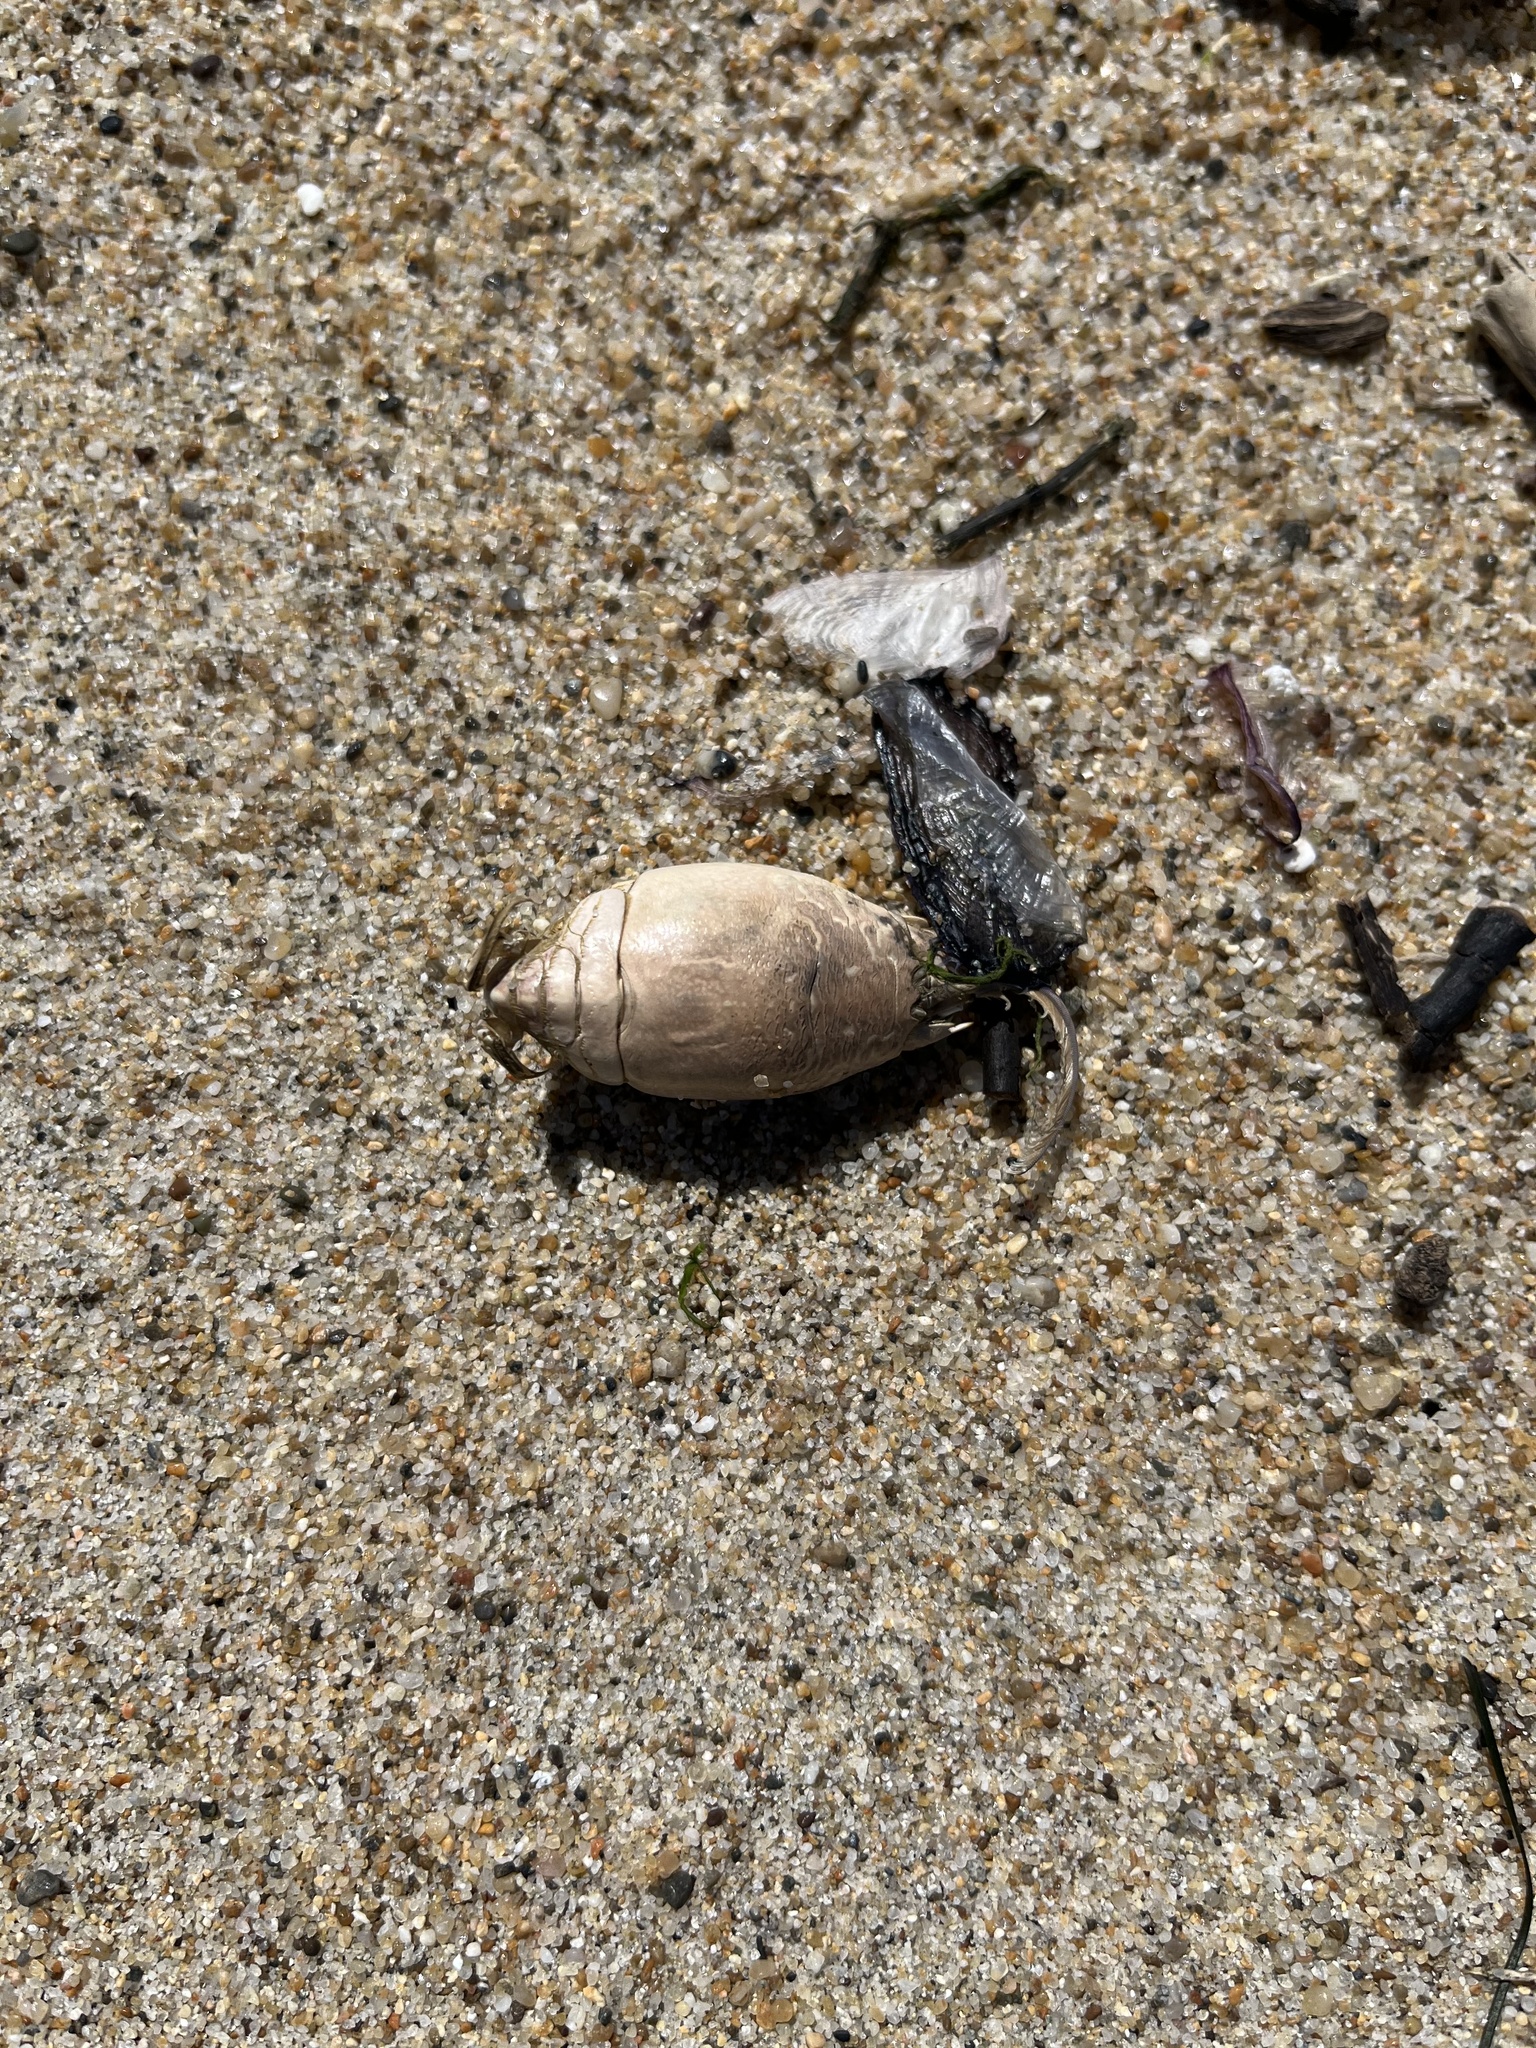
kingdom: Animalia
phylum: Arthropoda
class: Malacostraca
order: Decapoda
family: Hippidae
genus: Emerita
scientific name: Emerita analoga
